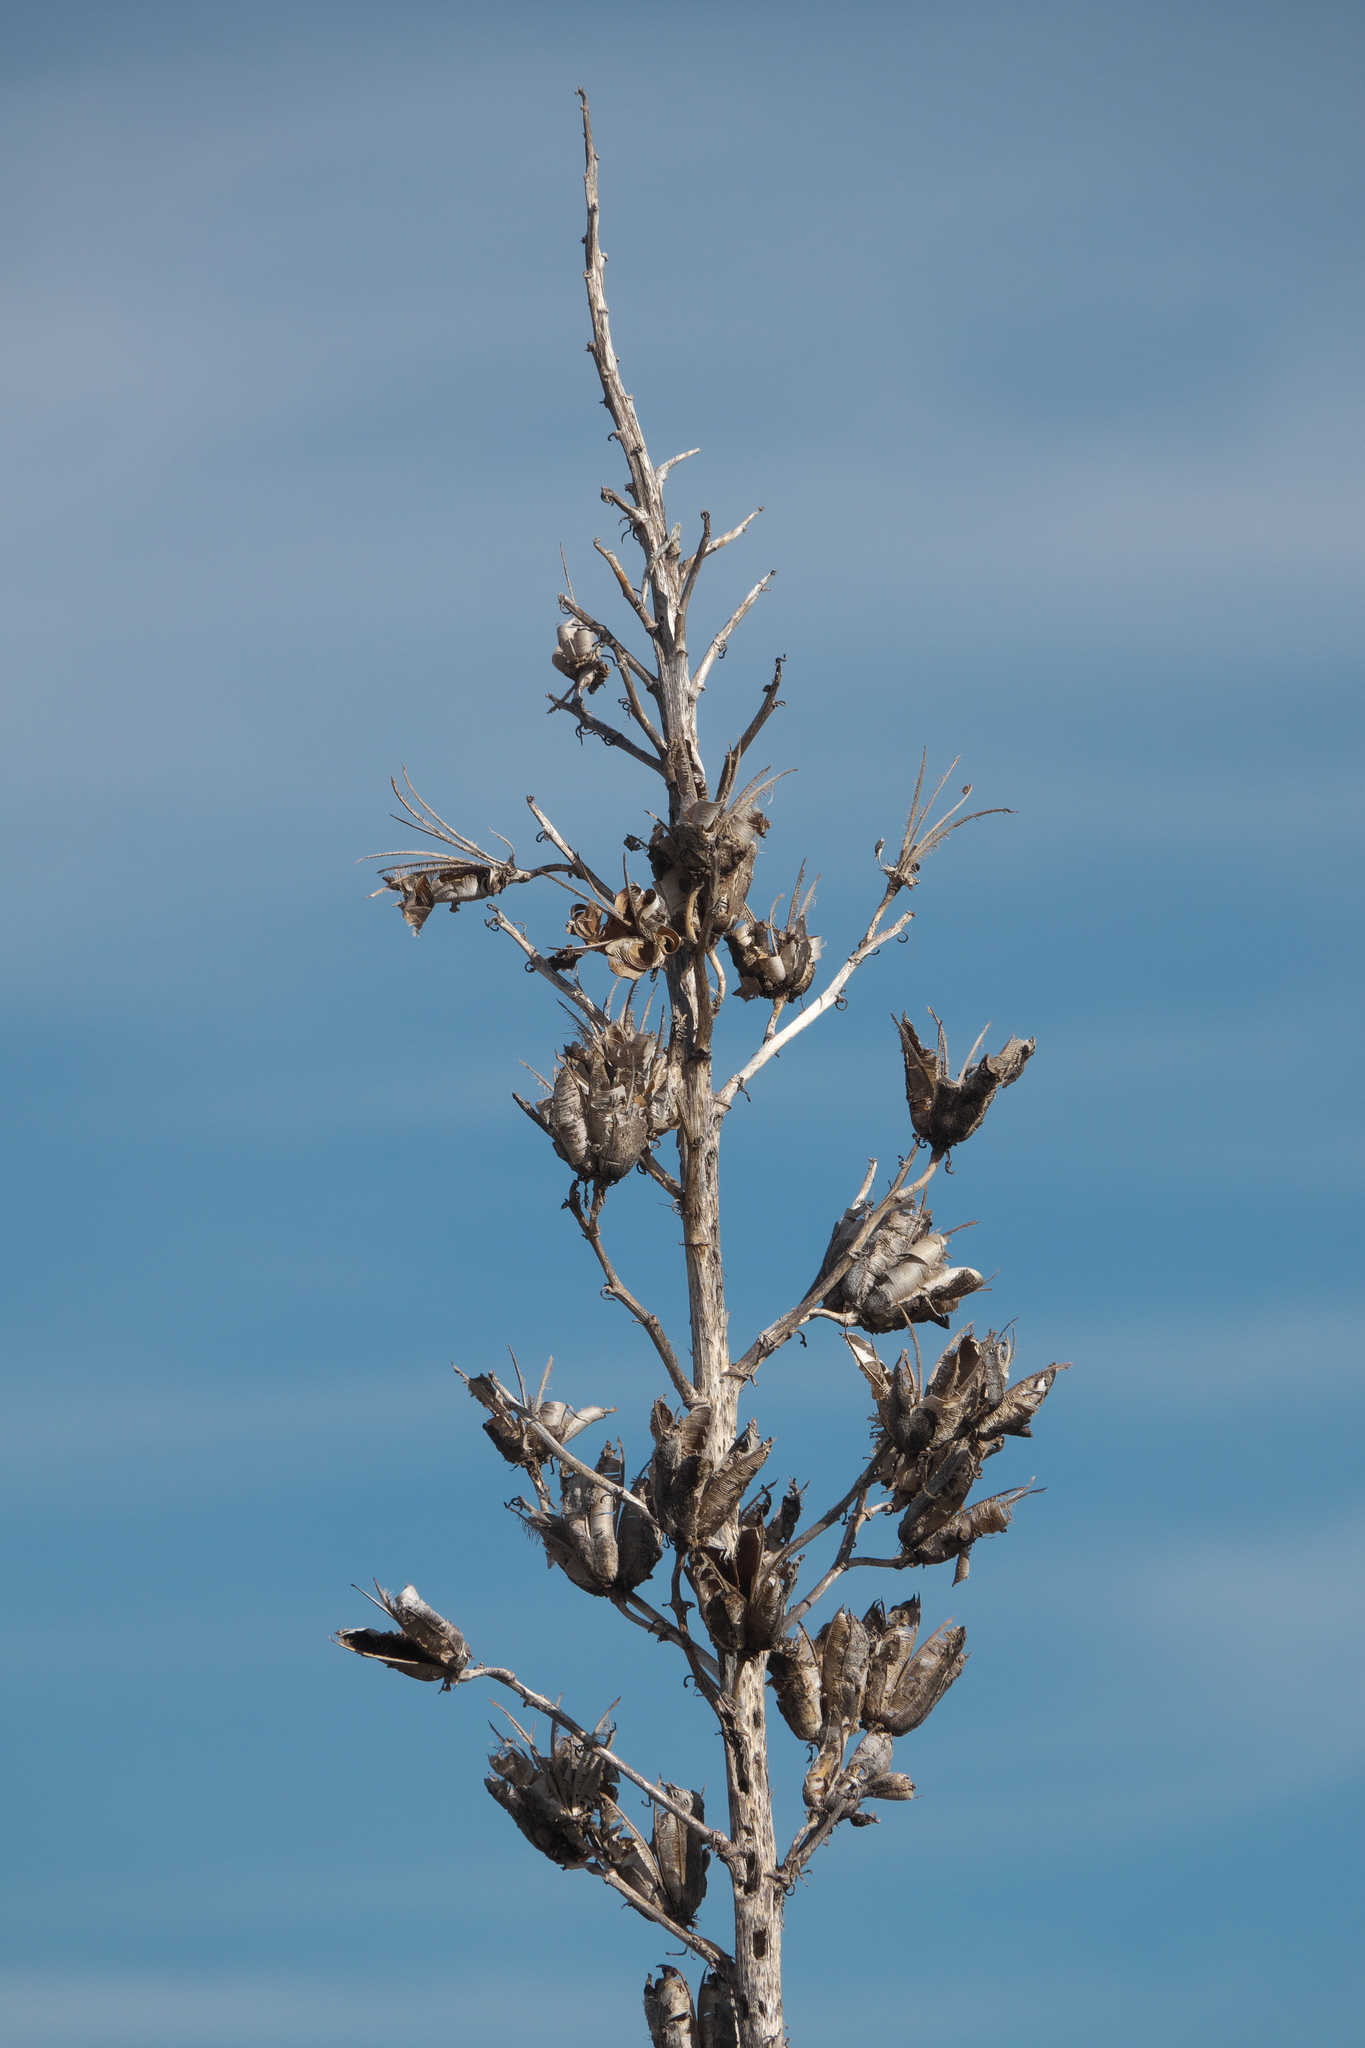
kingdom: Plantae
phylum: Tracheophyta
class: Liliopsida
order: Asparagales
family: Asparagaceae
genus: Yucca
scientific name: Yucca elata
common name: Palmella
